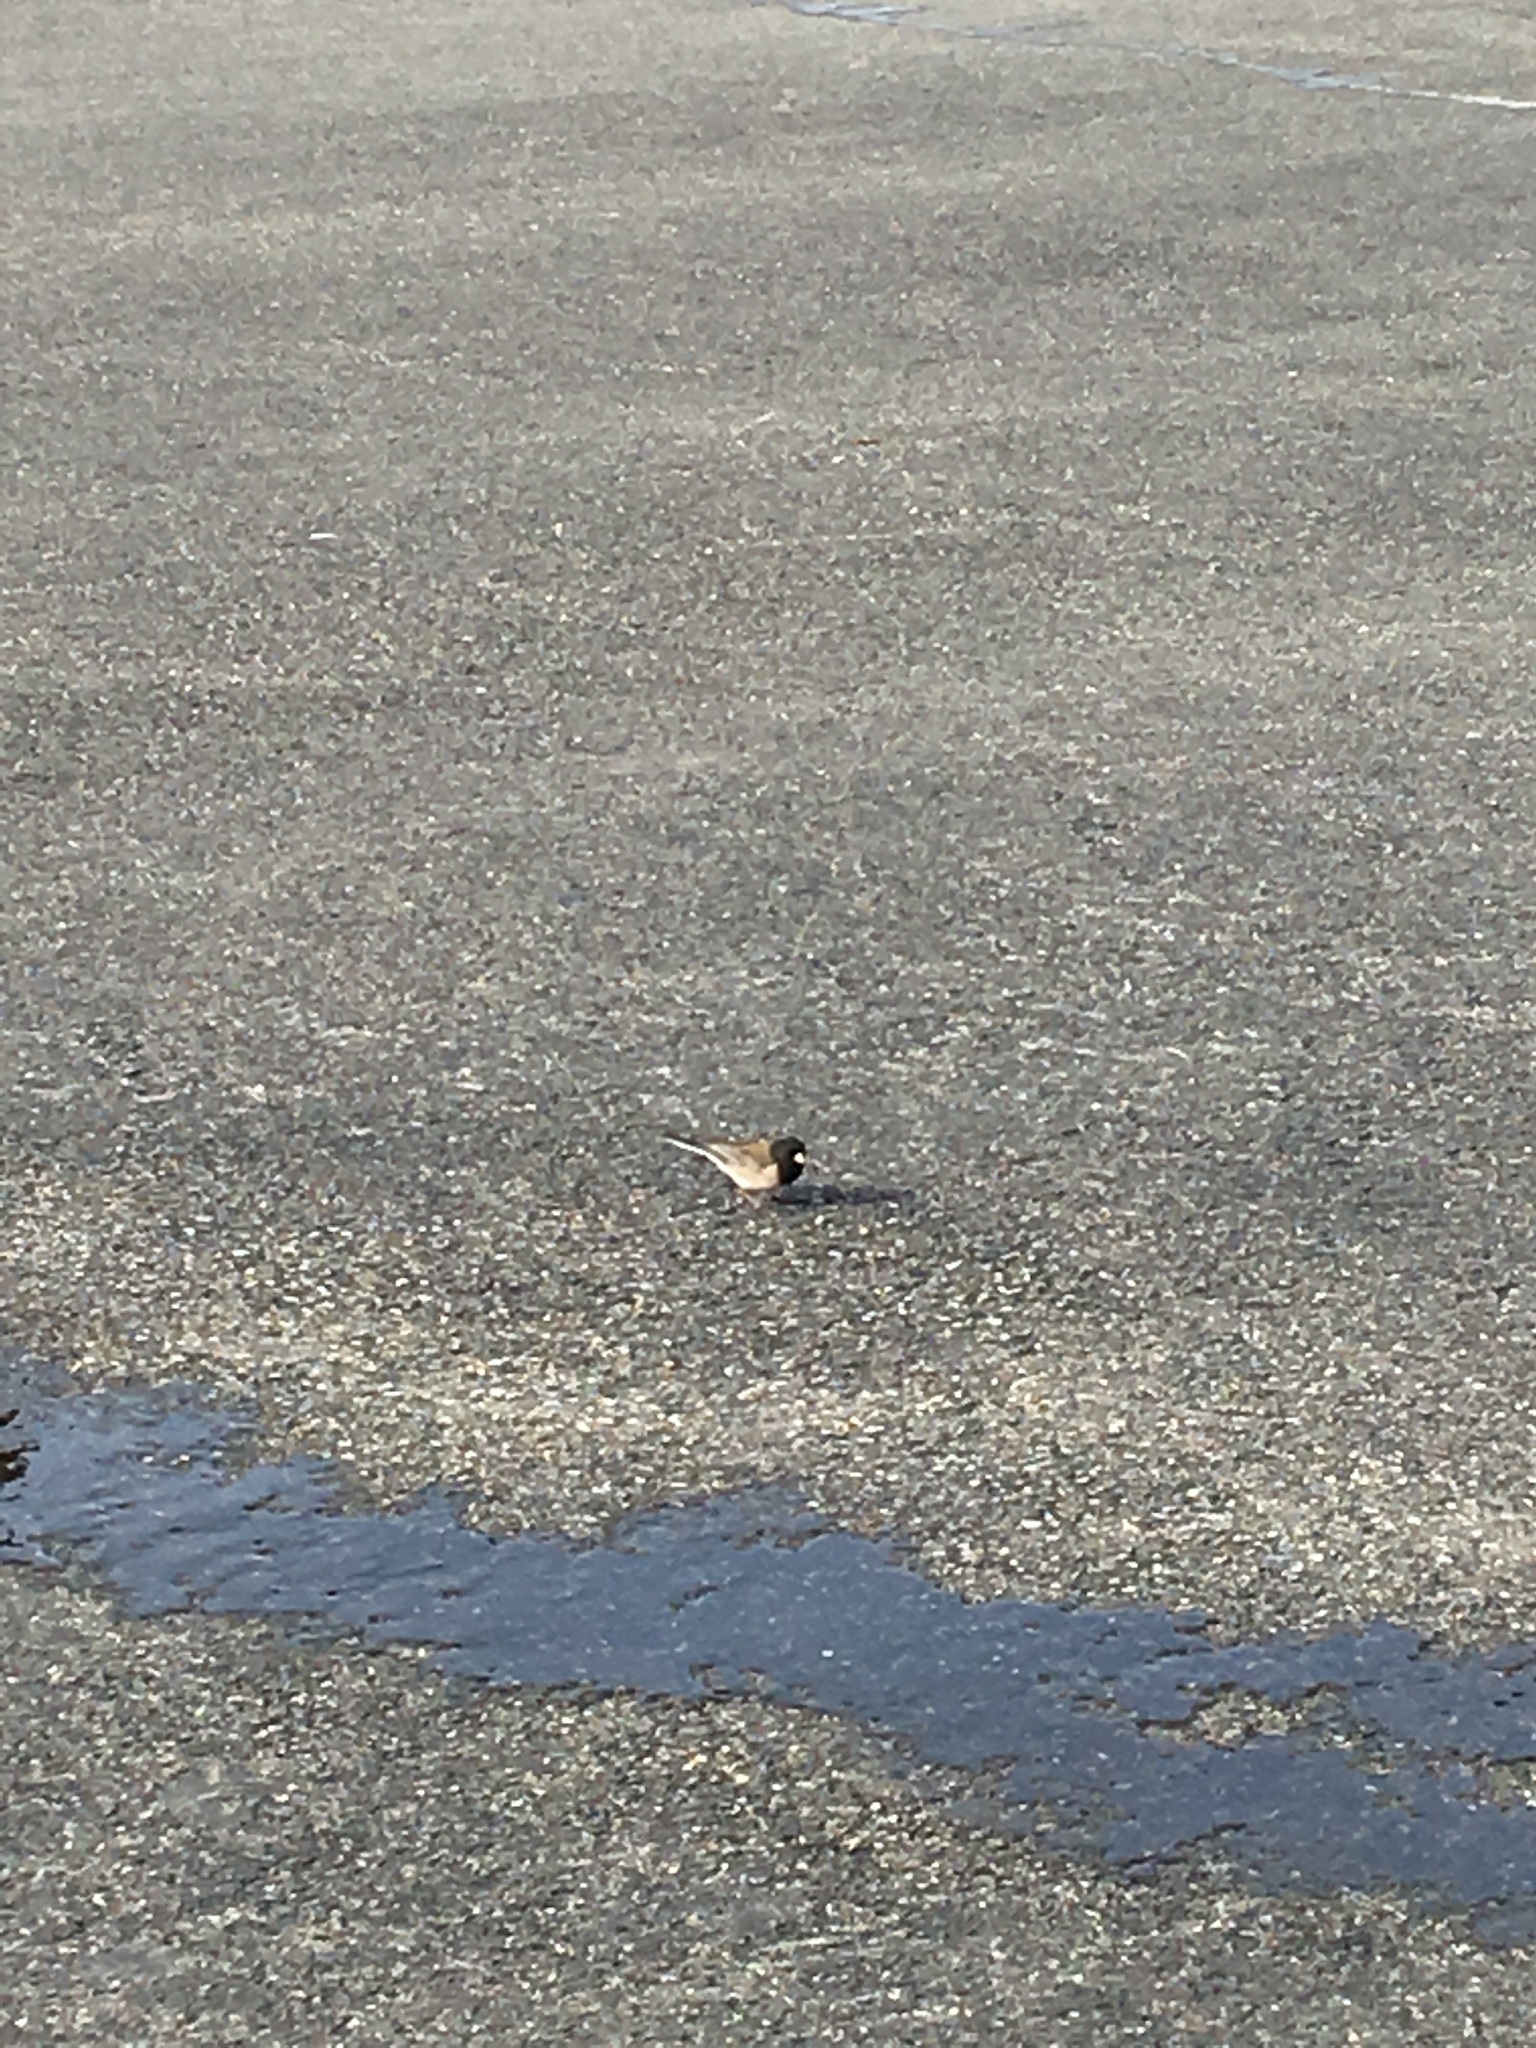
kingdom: Animalia
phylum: Chordata
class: Aves
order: Passeriformes
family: Passerellidae
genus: Junco
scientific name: Junco hyemalis
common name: Dark-eyed junco
